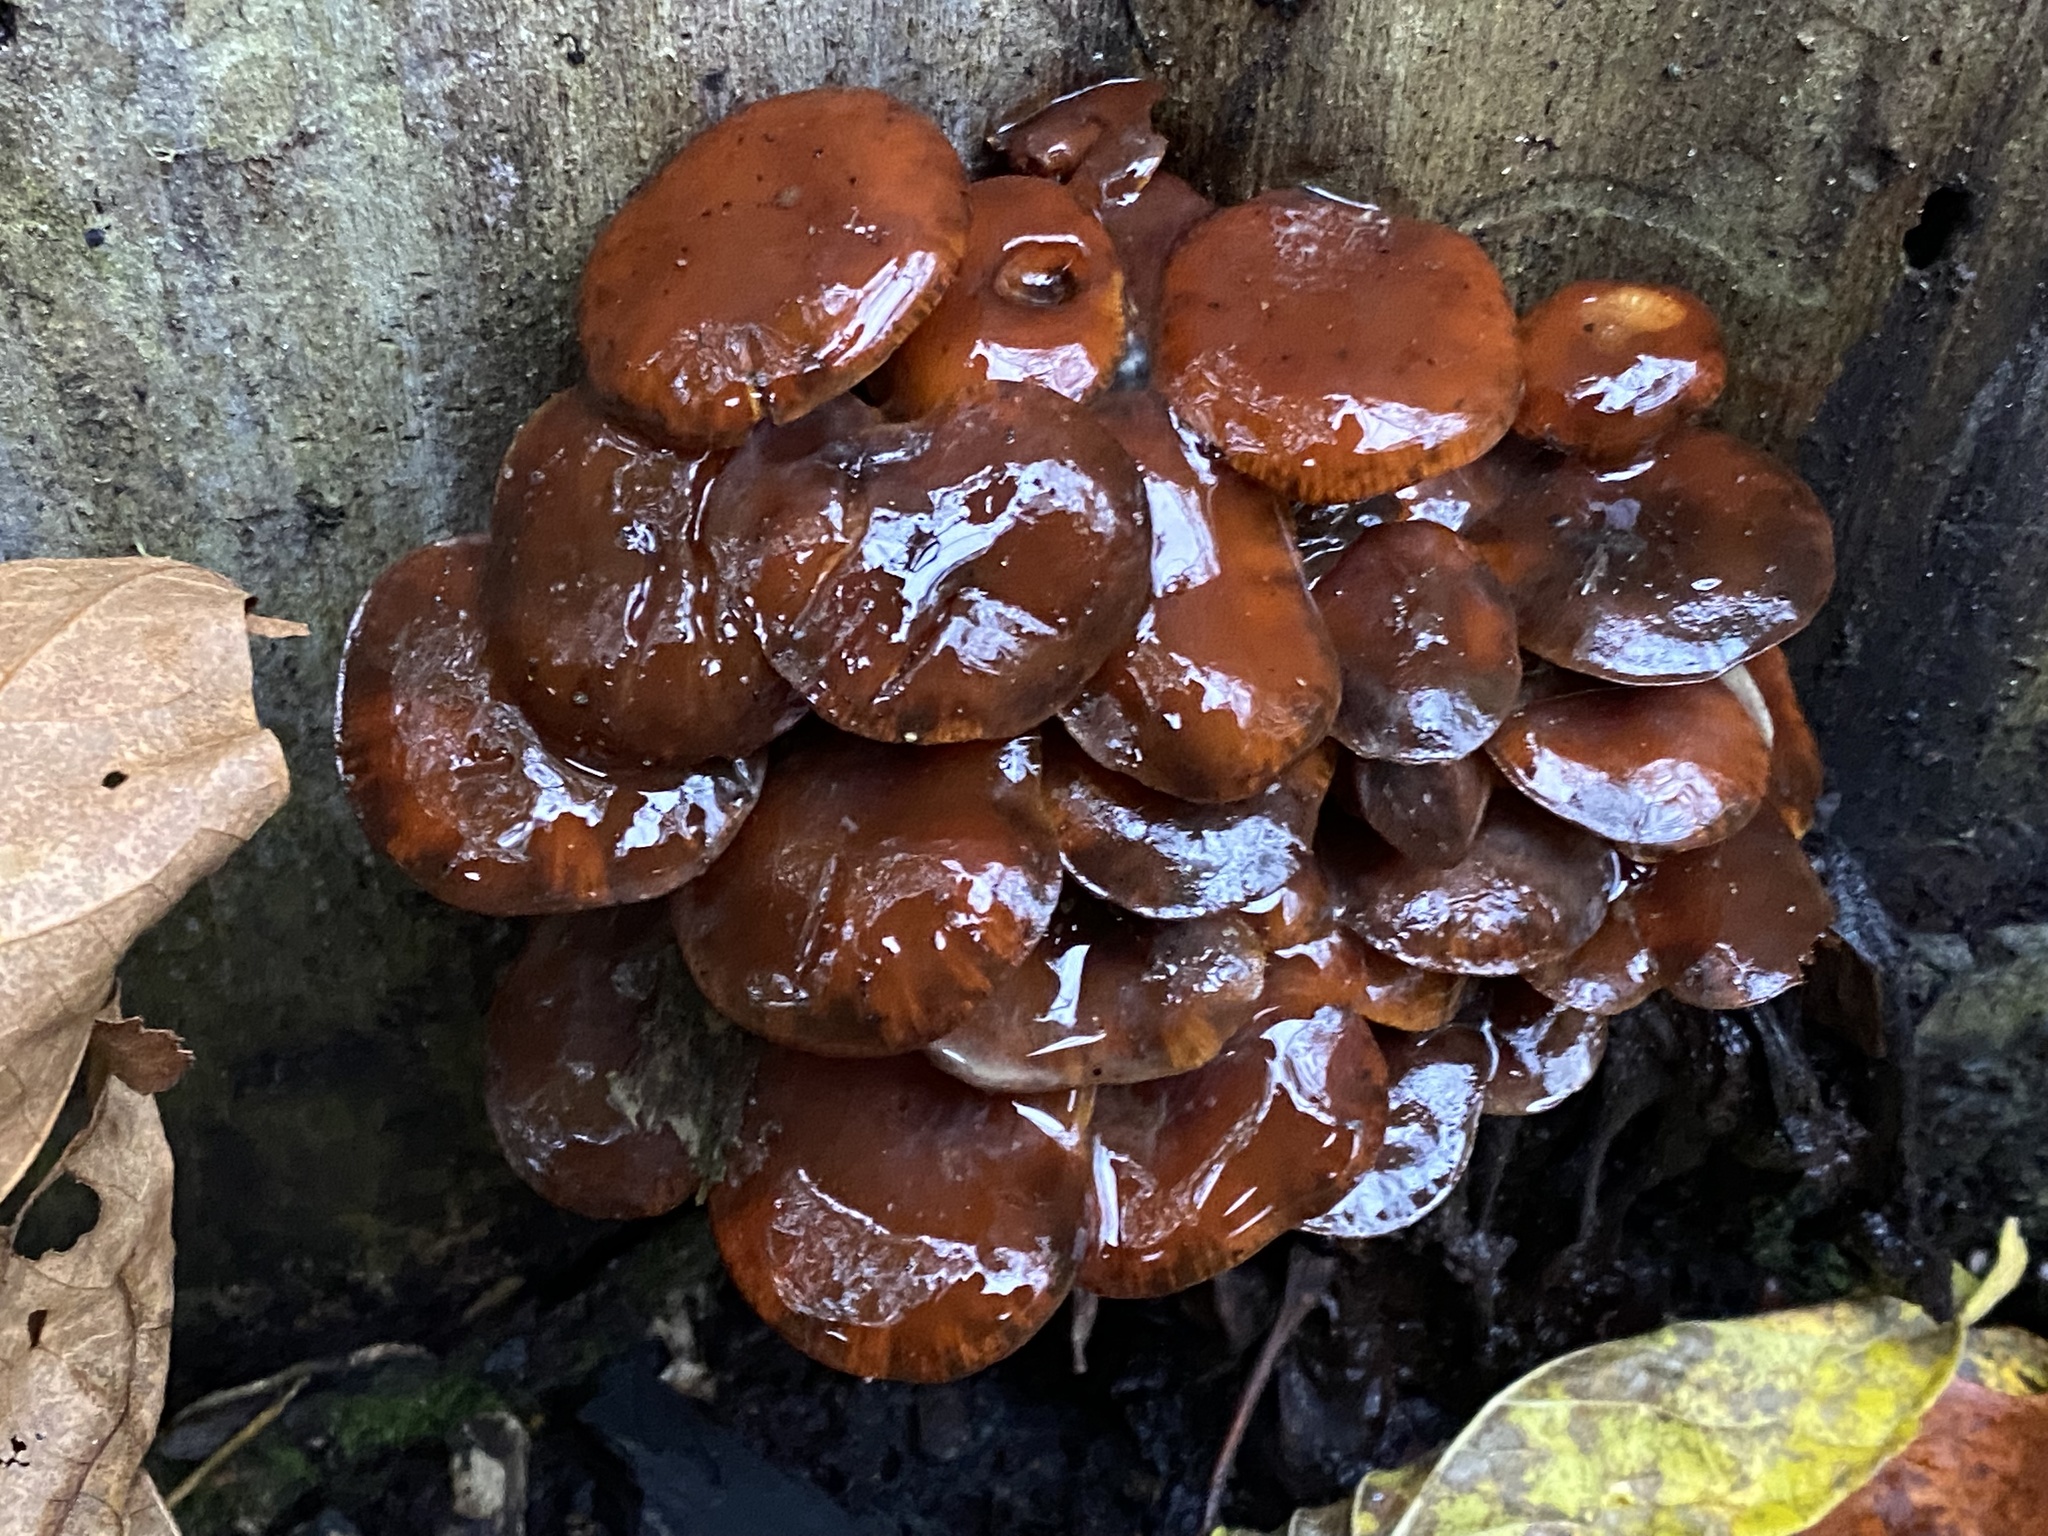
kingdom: Fungi
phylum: Basidiomycota
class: Agaricomycetes
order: Agaricales
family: Physalacriaceae
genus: Flammulina
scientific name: Flammulina velutipes
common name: Velvet shank
